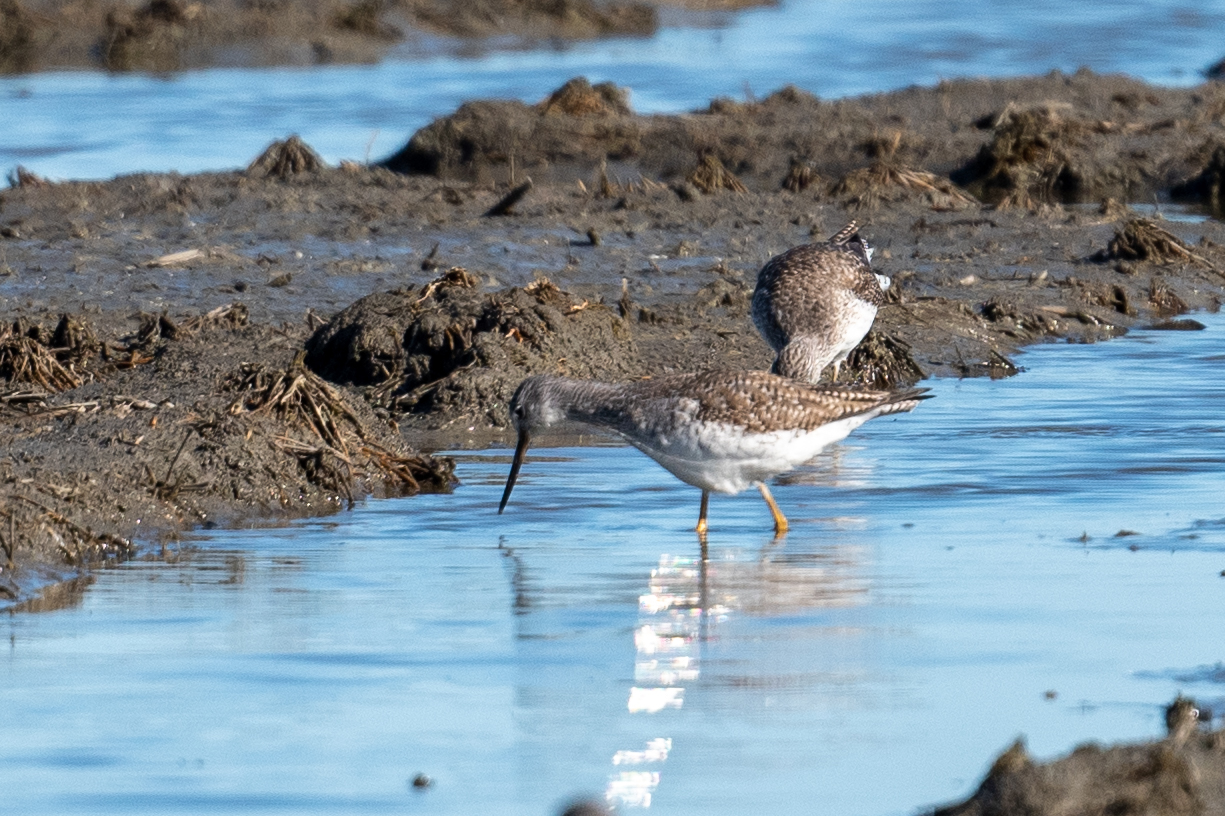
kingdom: Animalia
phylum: Chordata
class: Aves
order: Charadriiformes
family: Scolopacidae
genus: Tringa
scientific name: Tringa melanoleuca
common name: Greater yellowlegs
